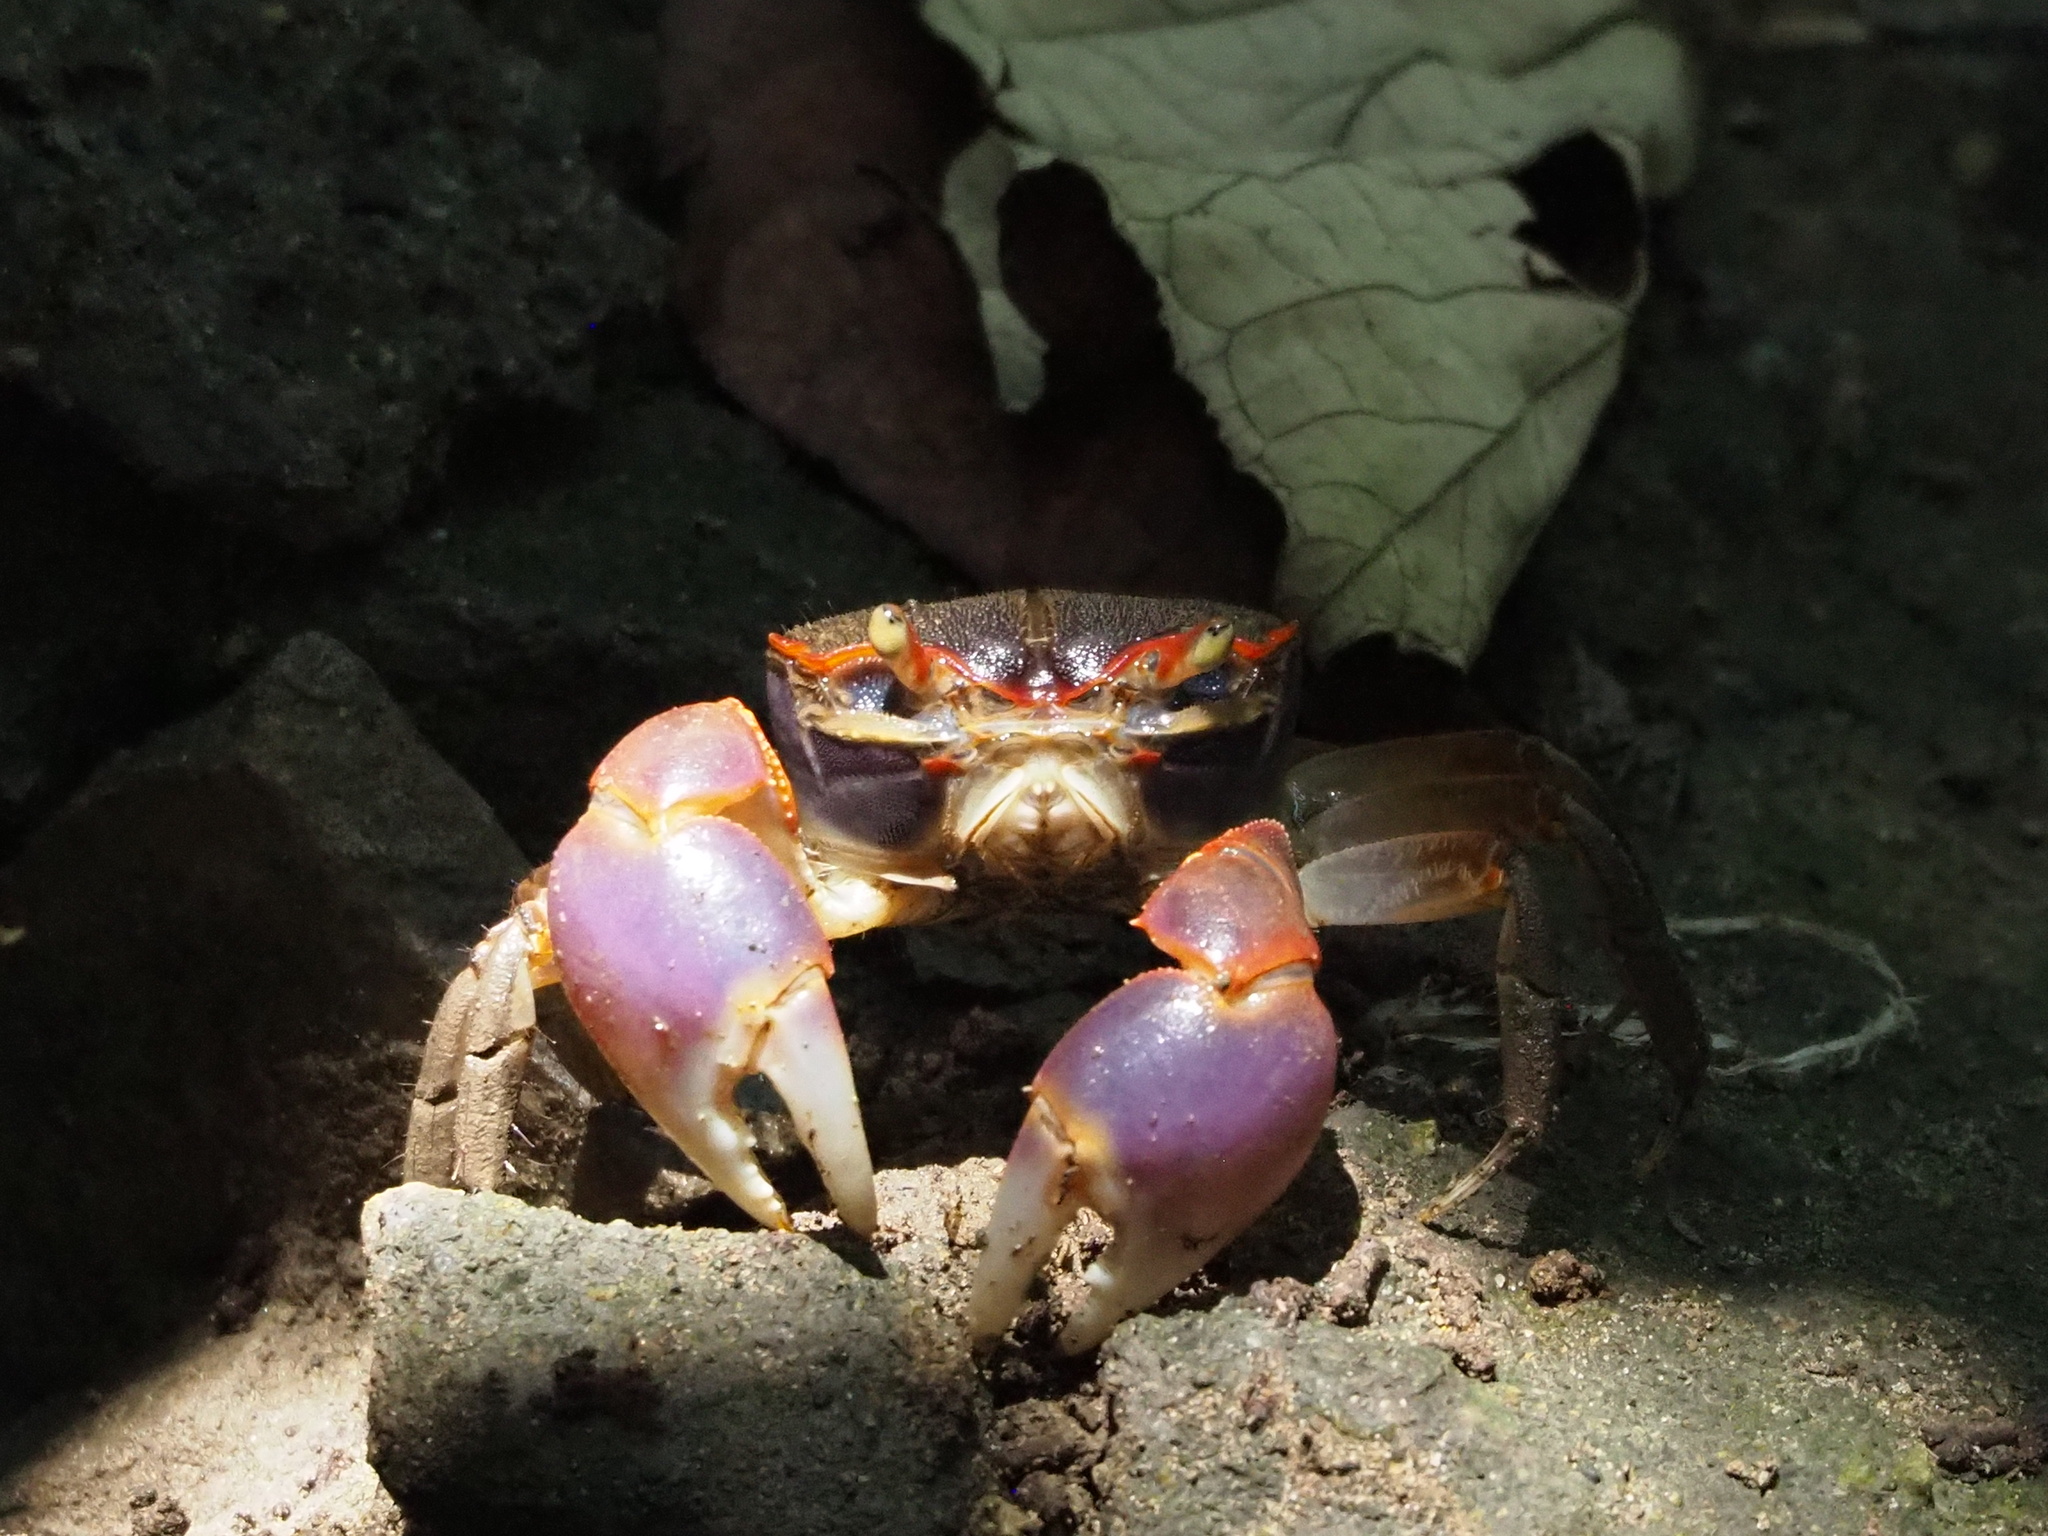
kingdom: Animalia
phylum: Arthropoda
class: Malacostraca
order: Decapoda
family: Varunidae
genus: Chasmagnathus
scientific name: Chasmagnathus convexus
